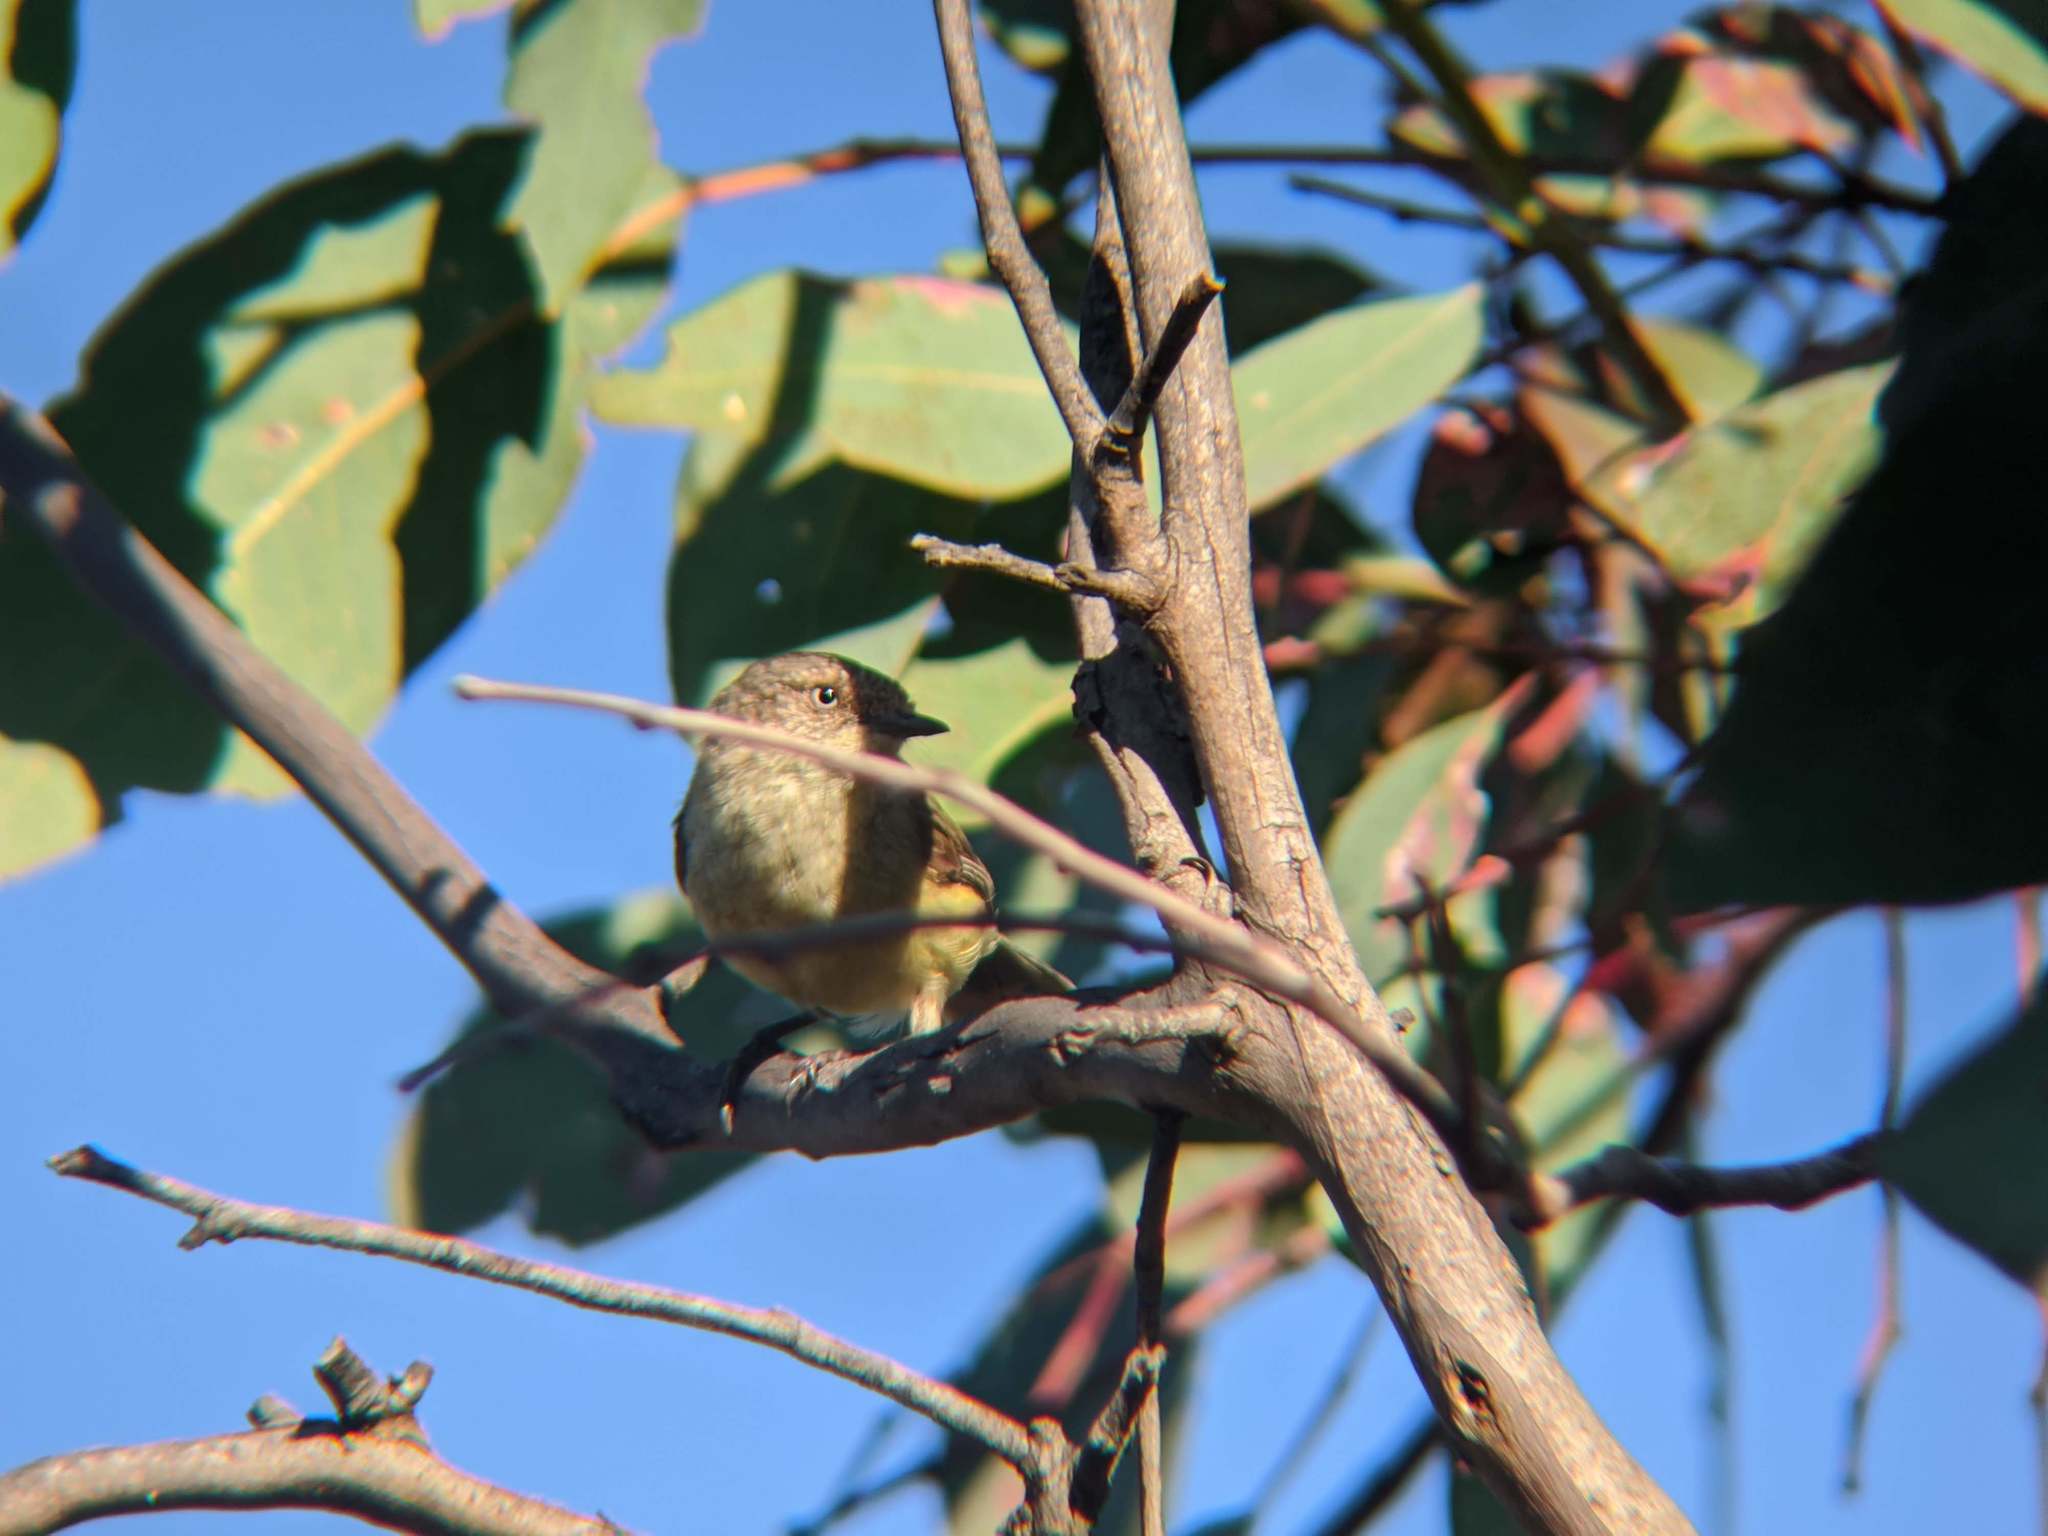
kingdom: Animalia
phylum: Chordata
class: Aves
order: Passeriformes
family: Acanthizidae
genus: Acanthiza
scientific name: Acanthiza reguloides
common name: Buff-rumped thornbill
